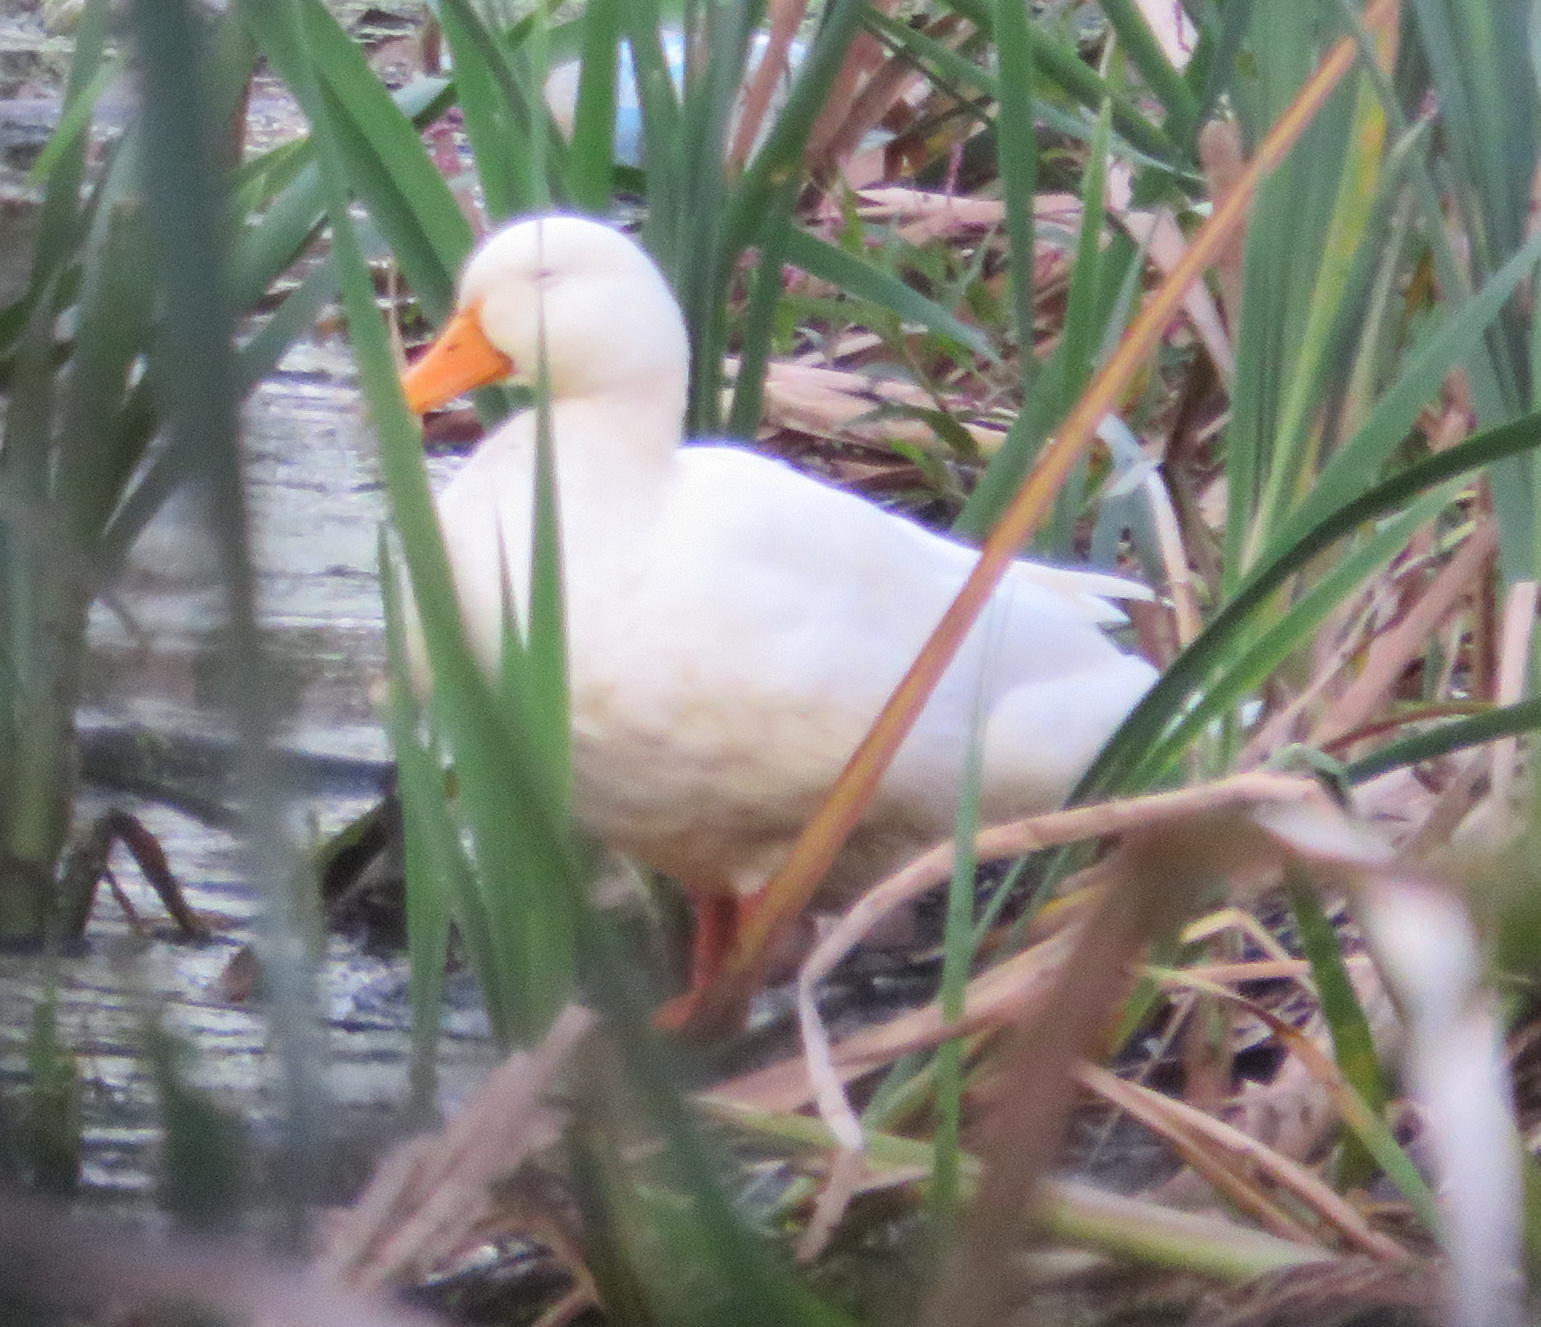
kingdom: Animalia
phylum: Chordata
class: Aves
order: Anseriformes
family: Anatidae
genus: Anas
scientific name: Anas platyrhynchos
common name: Mallard
